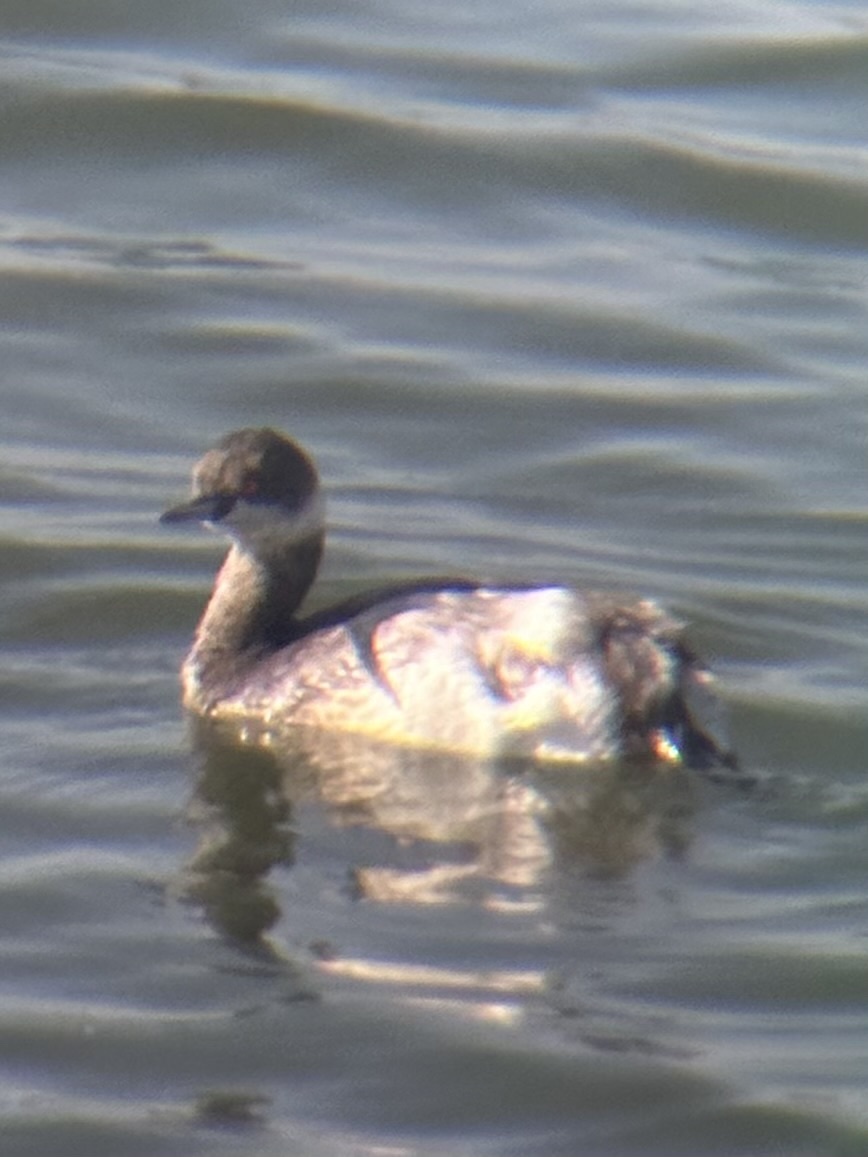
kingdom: Animalia
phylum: Chordata
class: Aves
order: Podicipediformes
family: Podicipedidae
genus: Podiceps
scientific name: Podiceps nigricollis
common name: Black-necked grebe
